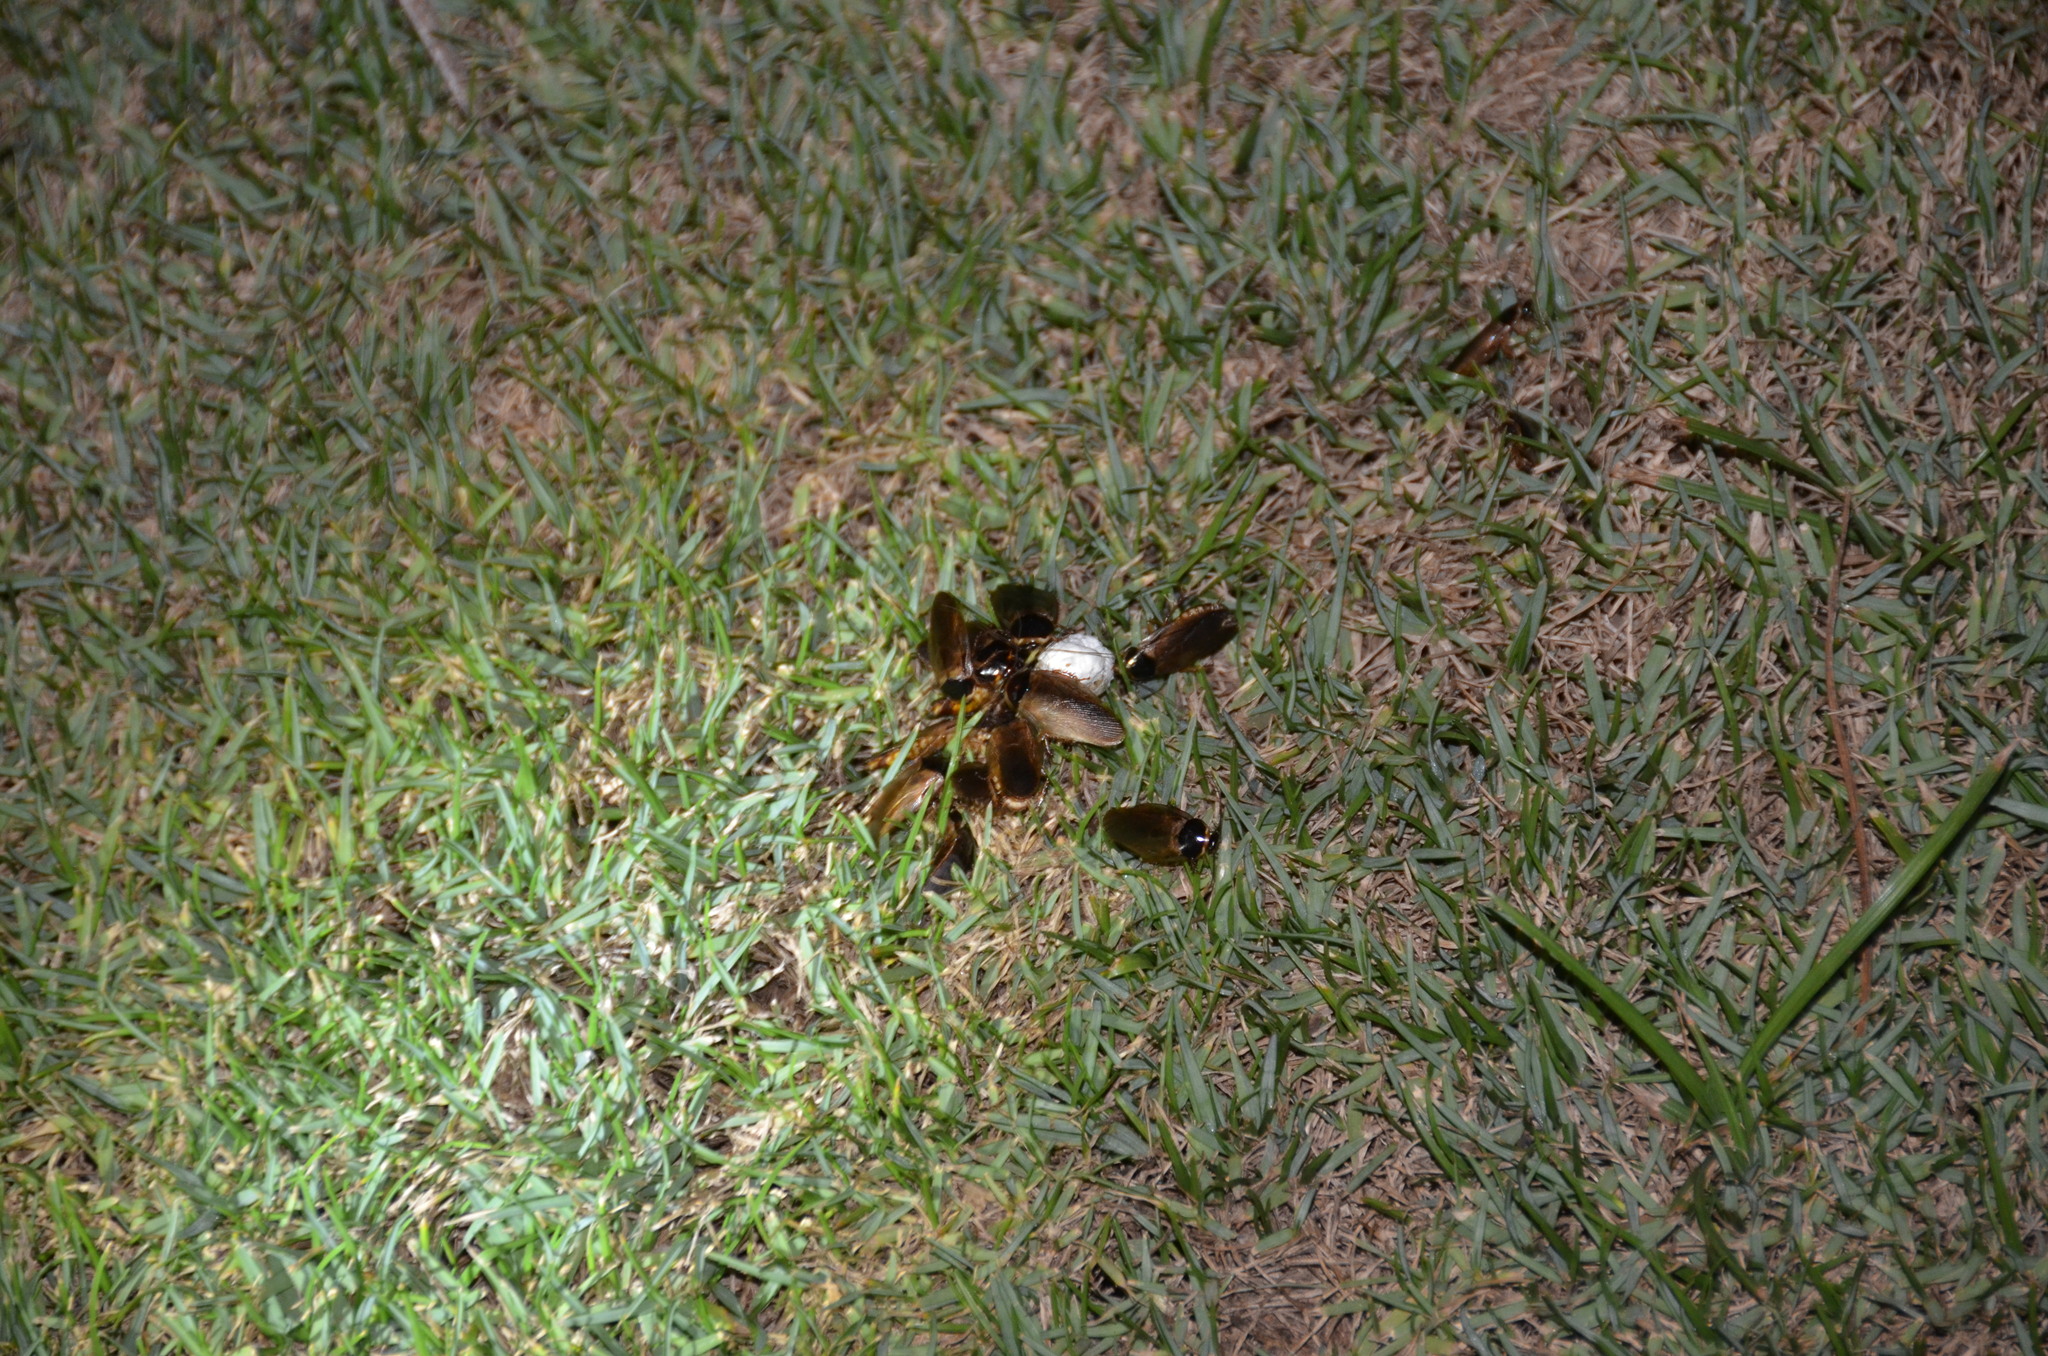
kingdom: Animalia
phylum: Arthropoda
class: Insecta
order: Blattodea
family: Blaberidae
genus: Pycnoscelus
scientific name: Pycnoscelus indicus
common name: Burrowing cockroach
